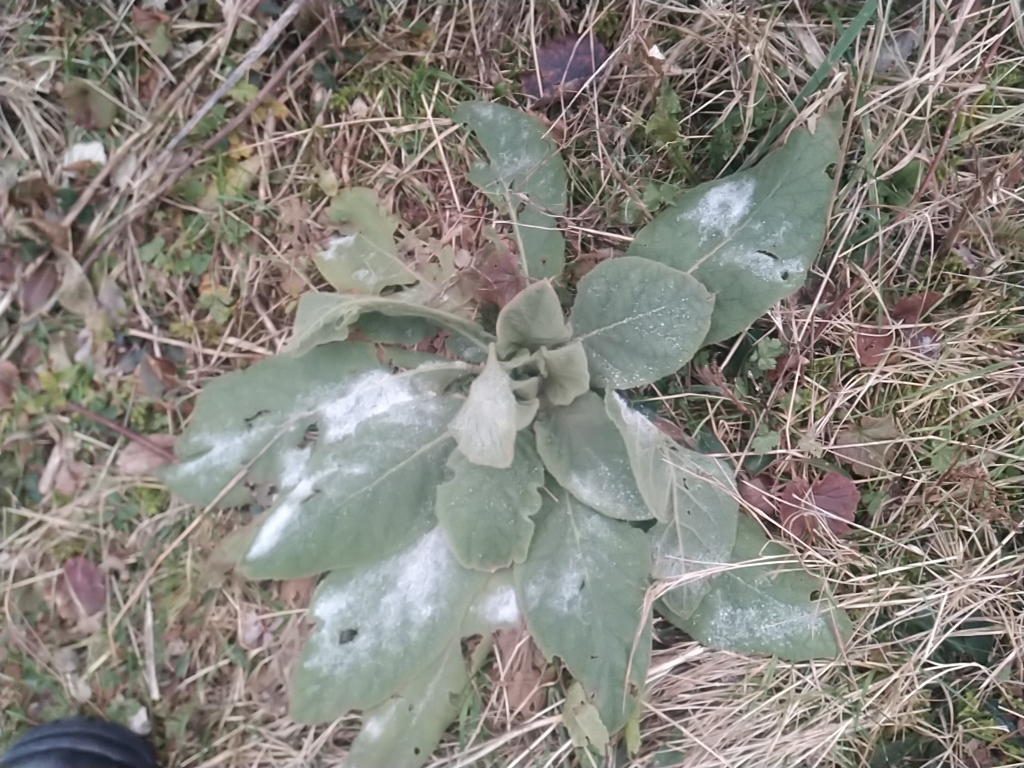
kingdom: Plantae
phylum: Tracheophyta
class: Magnoliopsida
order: Lamiales
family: Scrophulariaceae
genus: Verbascum
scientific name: Verbascum thapsus
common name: Common mullein
